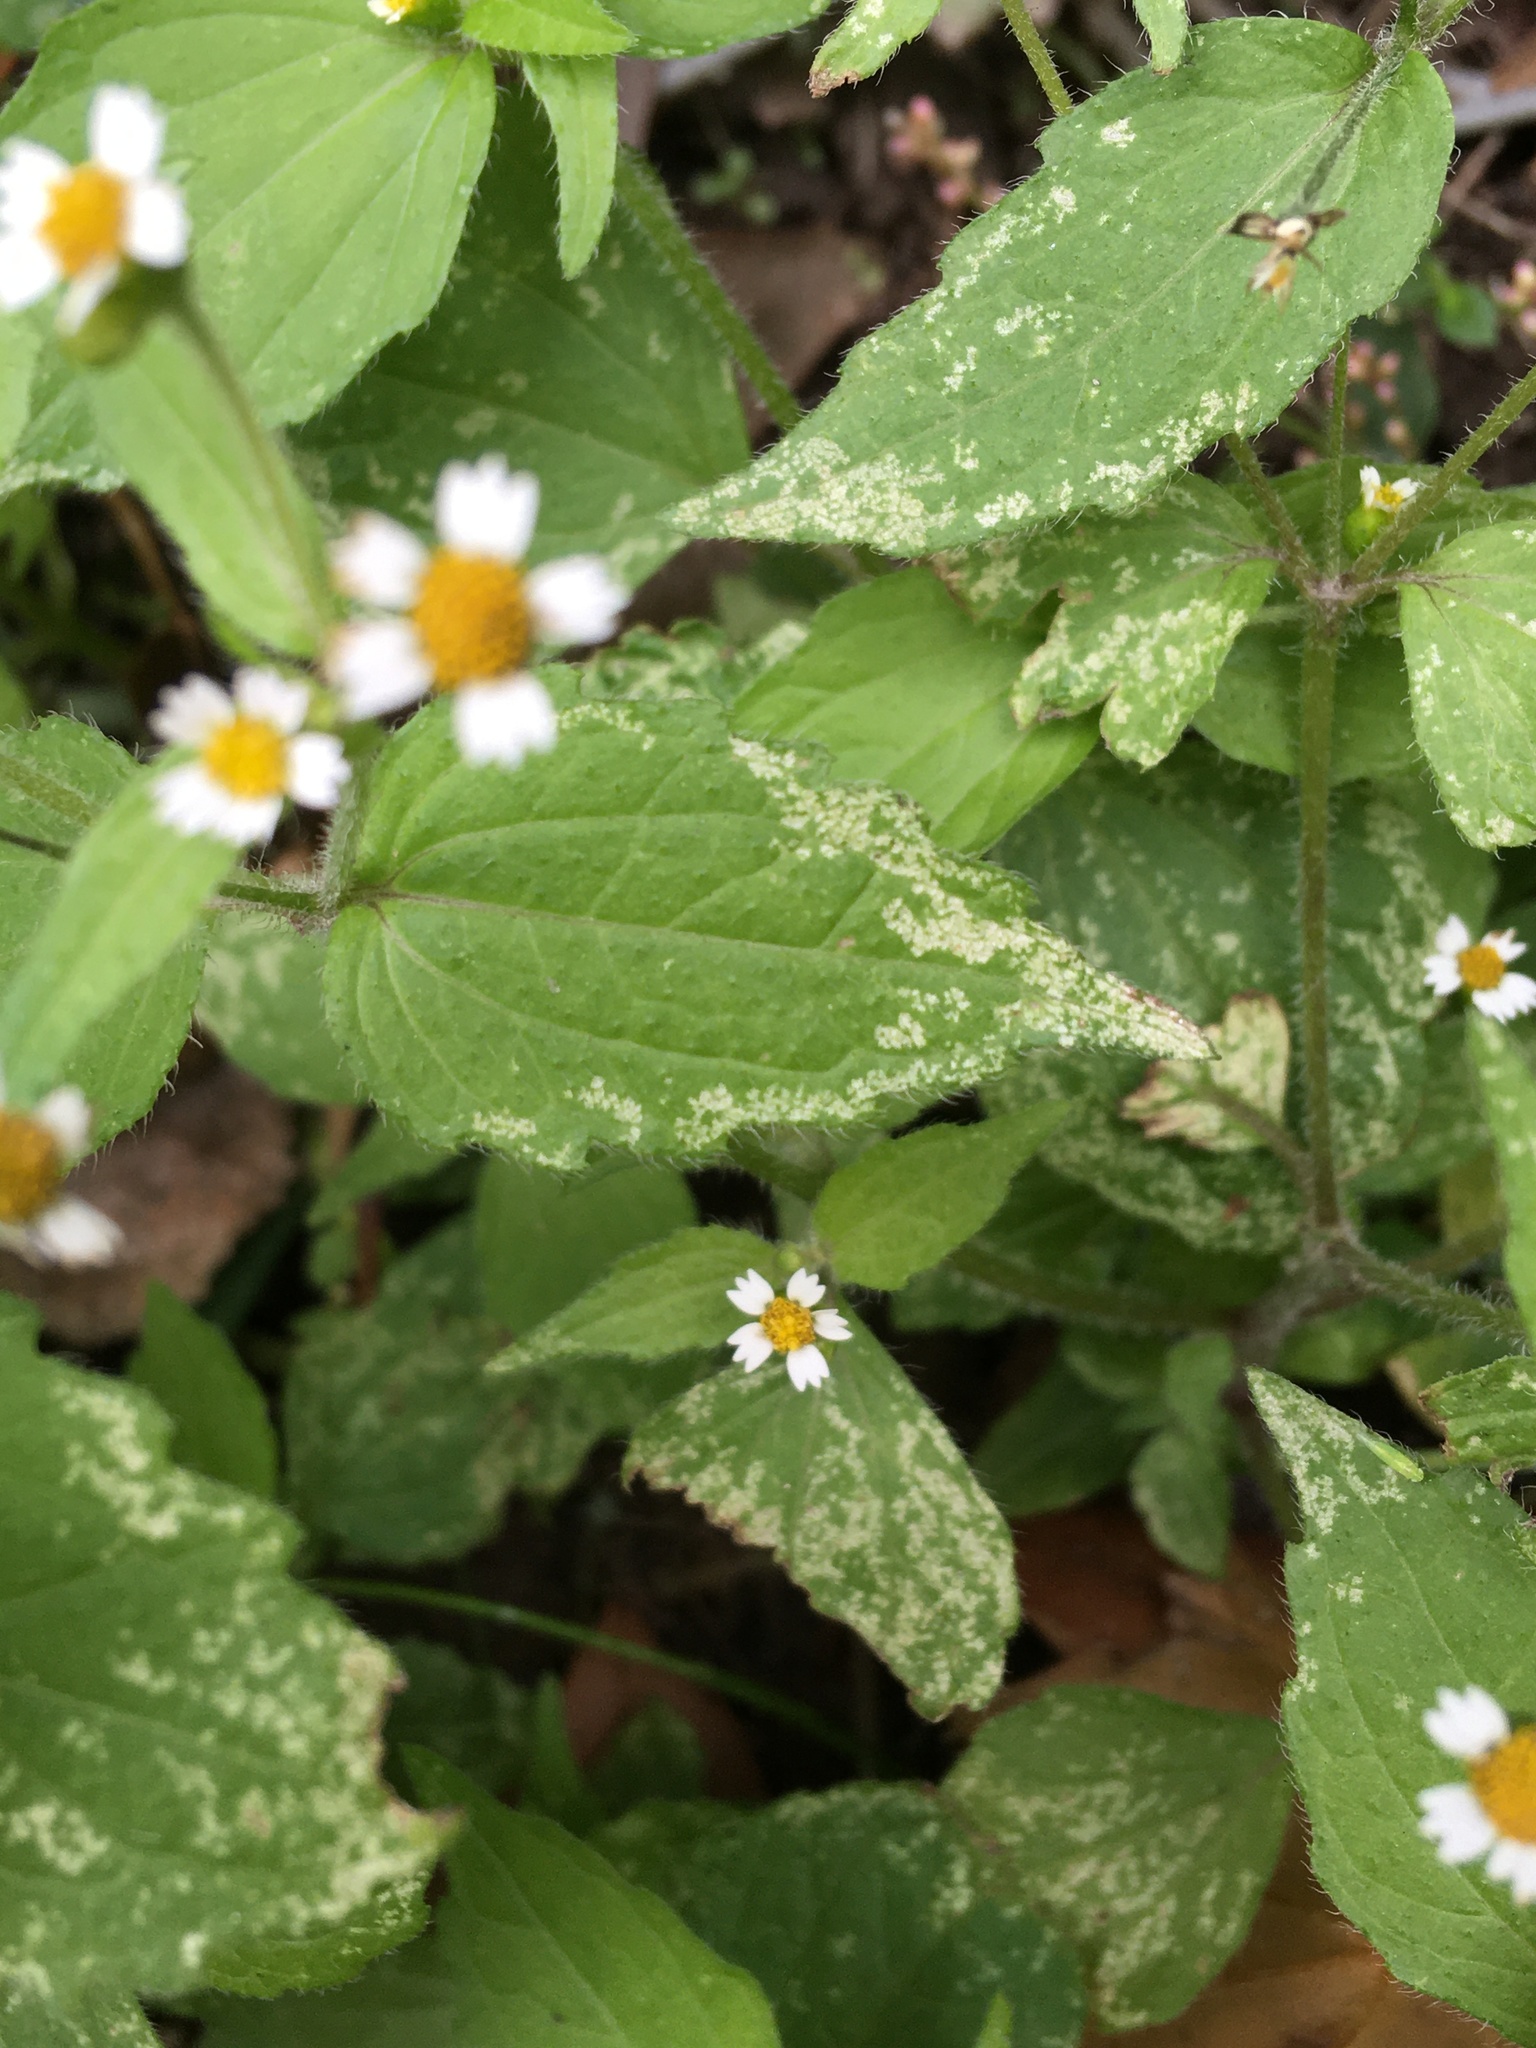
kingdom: Plantae
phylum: Tracheophyta
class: Magnoliopsida
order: Asterales
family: Asteraceae
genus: Galinsoga
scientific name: Galinsoga quadriradiata
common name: Shaggy soldier
